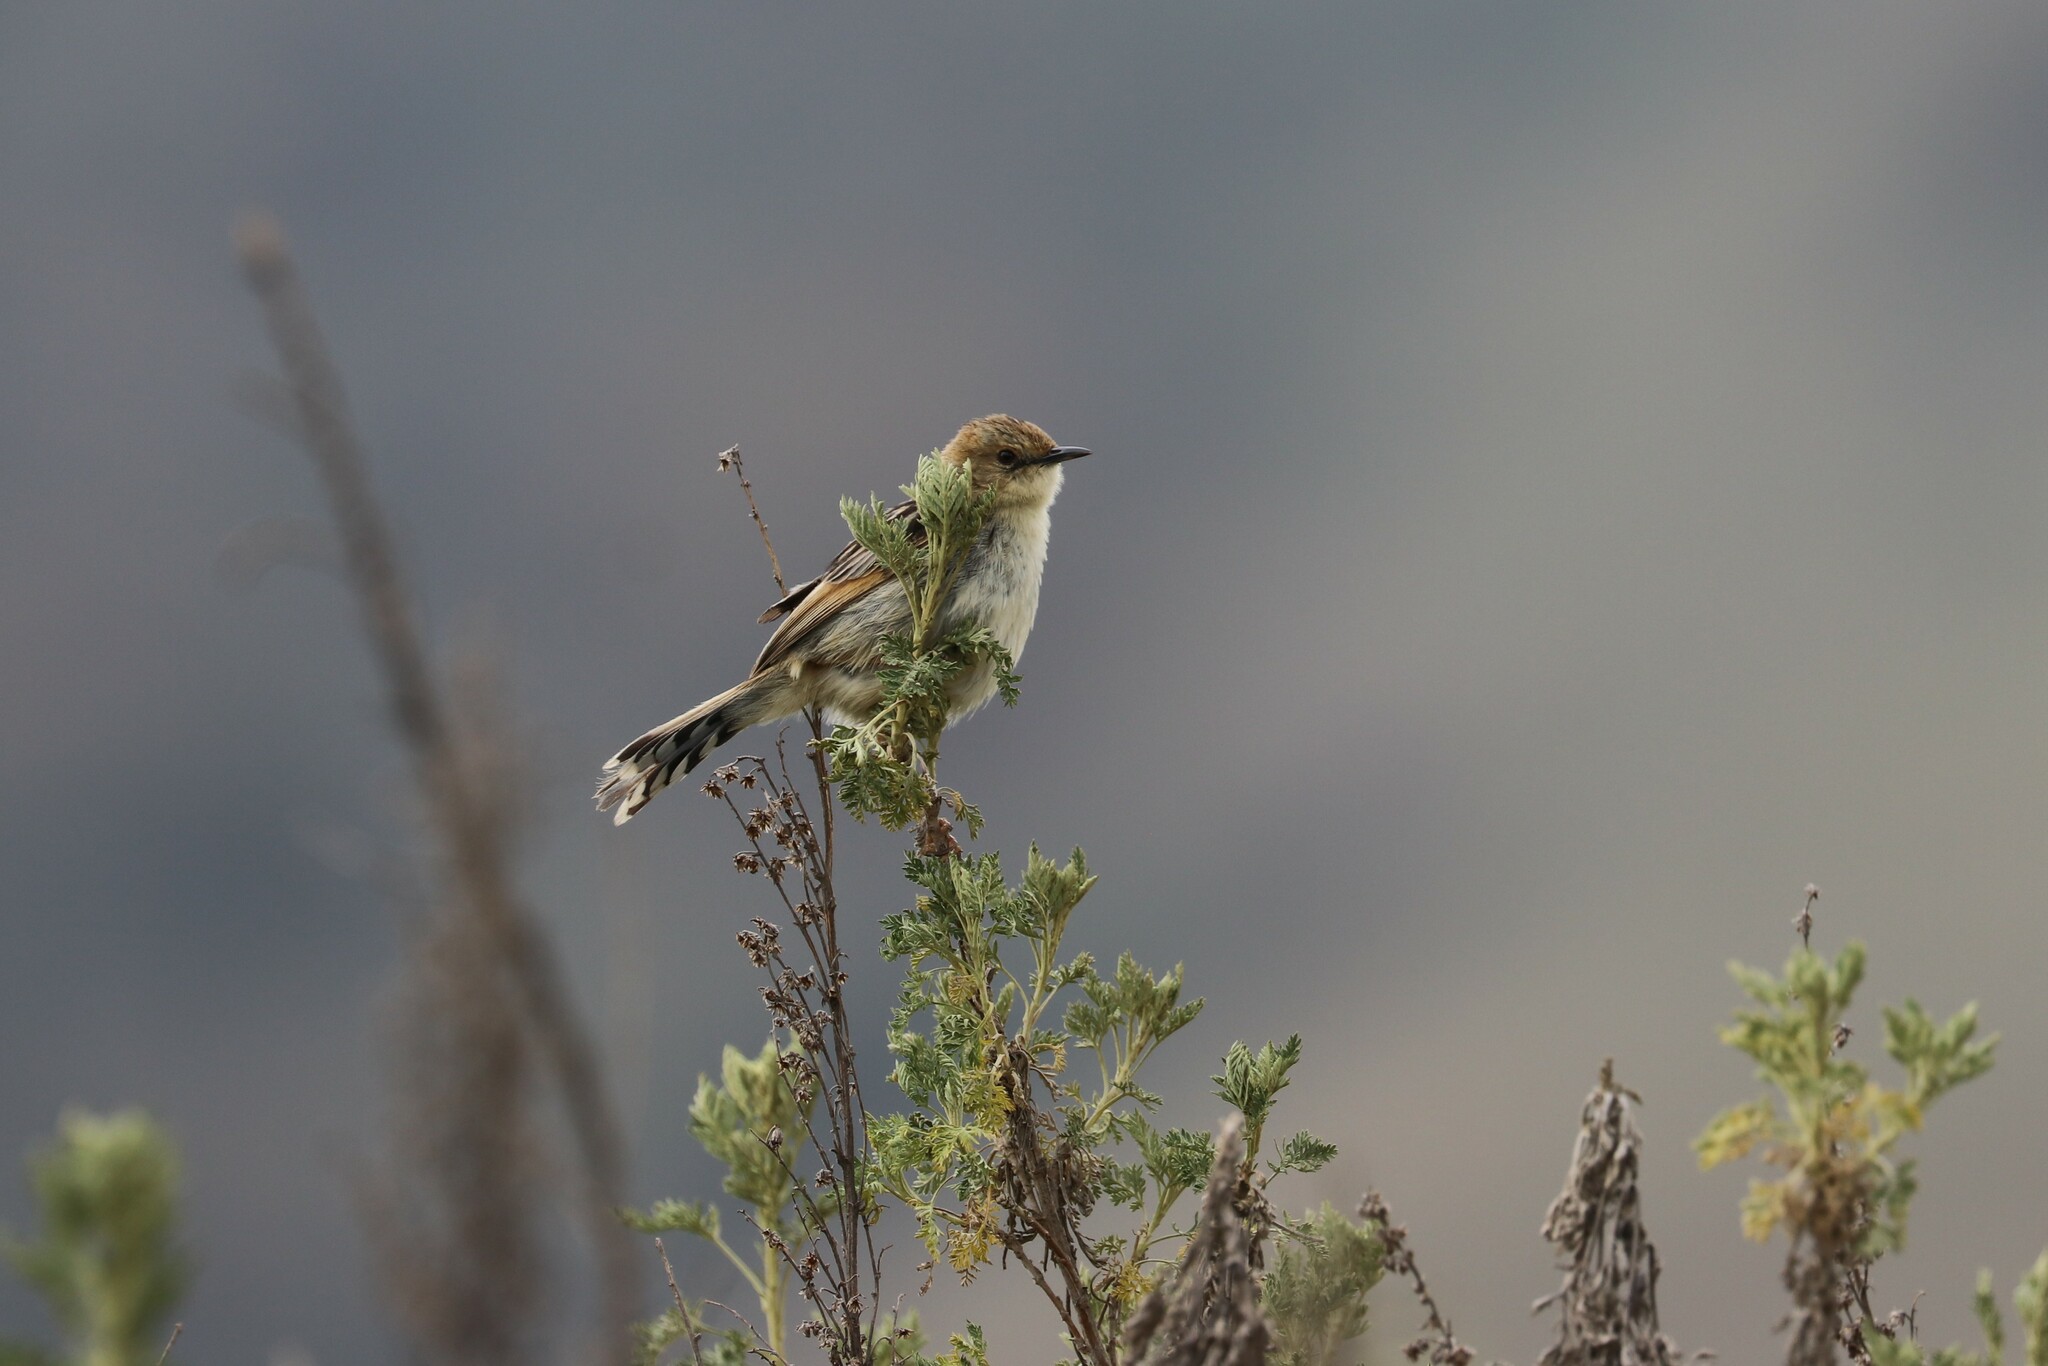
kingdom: Animalia
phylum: Chordata
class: Aves
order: Passeriformes
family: Cisticolidae
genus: Cisticola
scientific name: Cisticola lugubris
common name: Ethiopian cisticola
